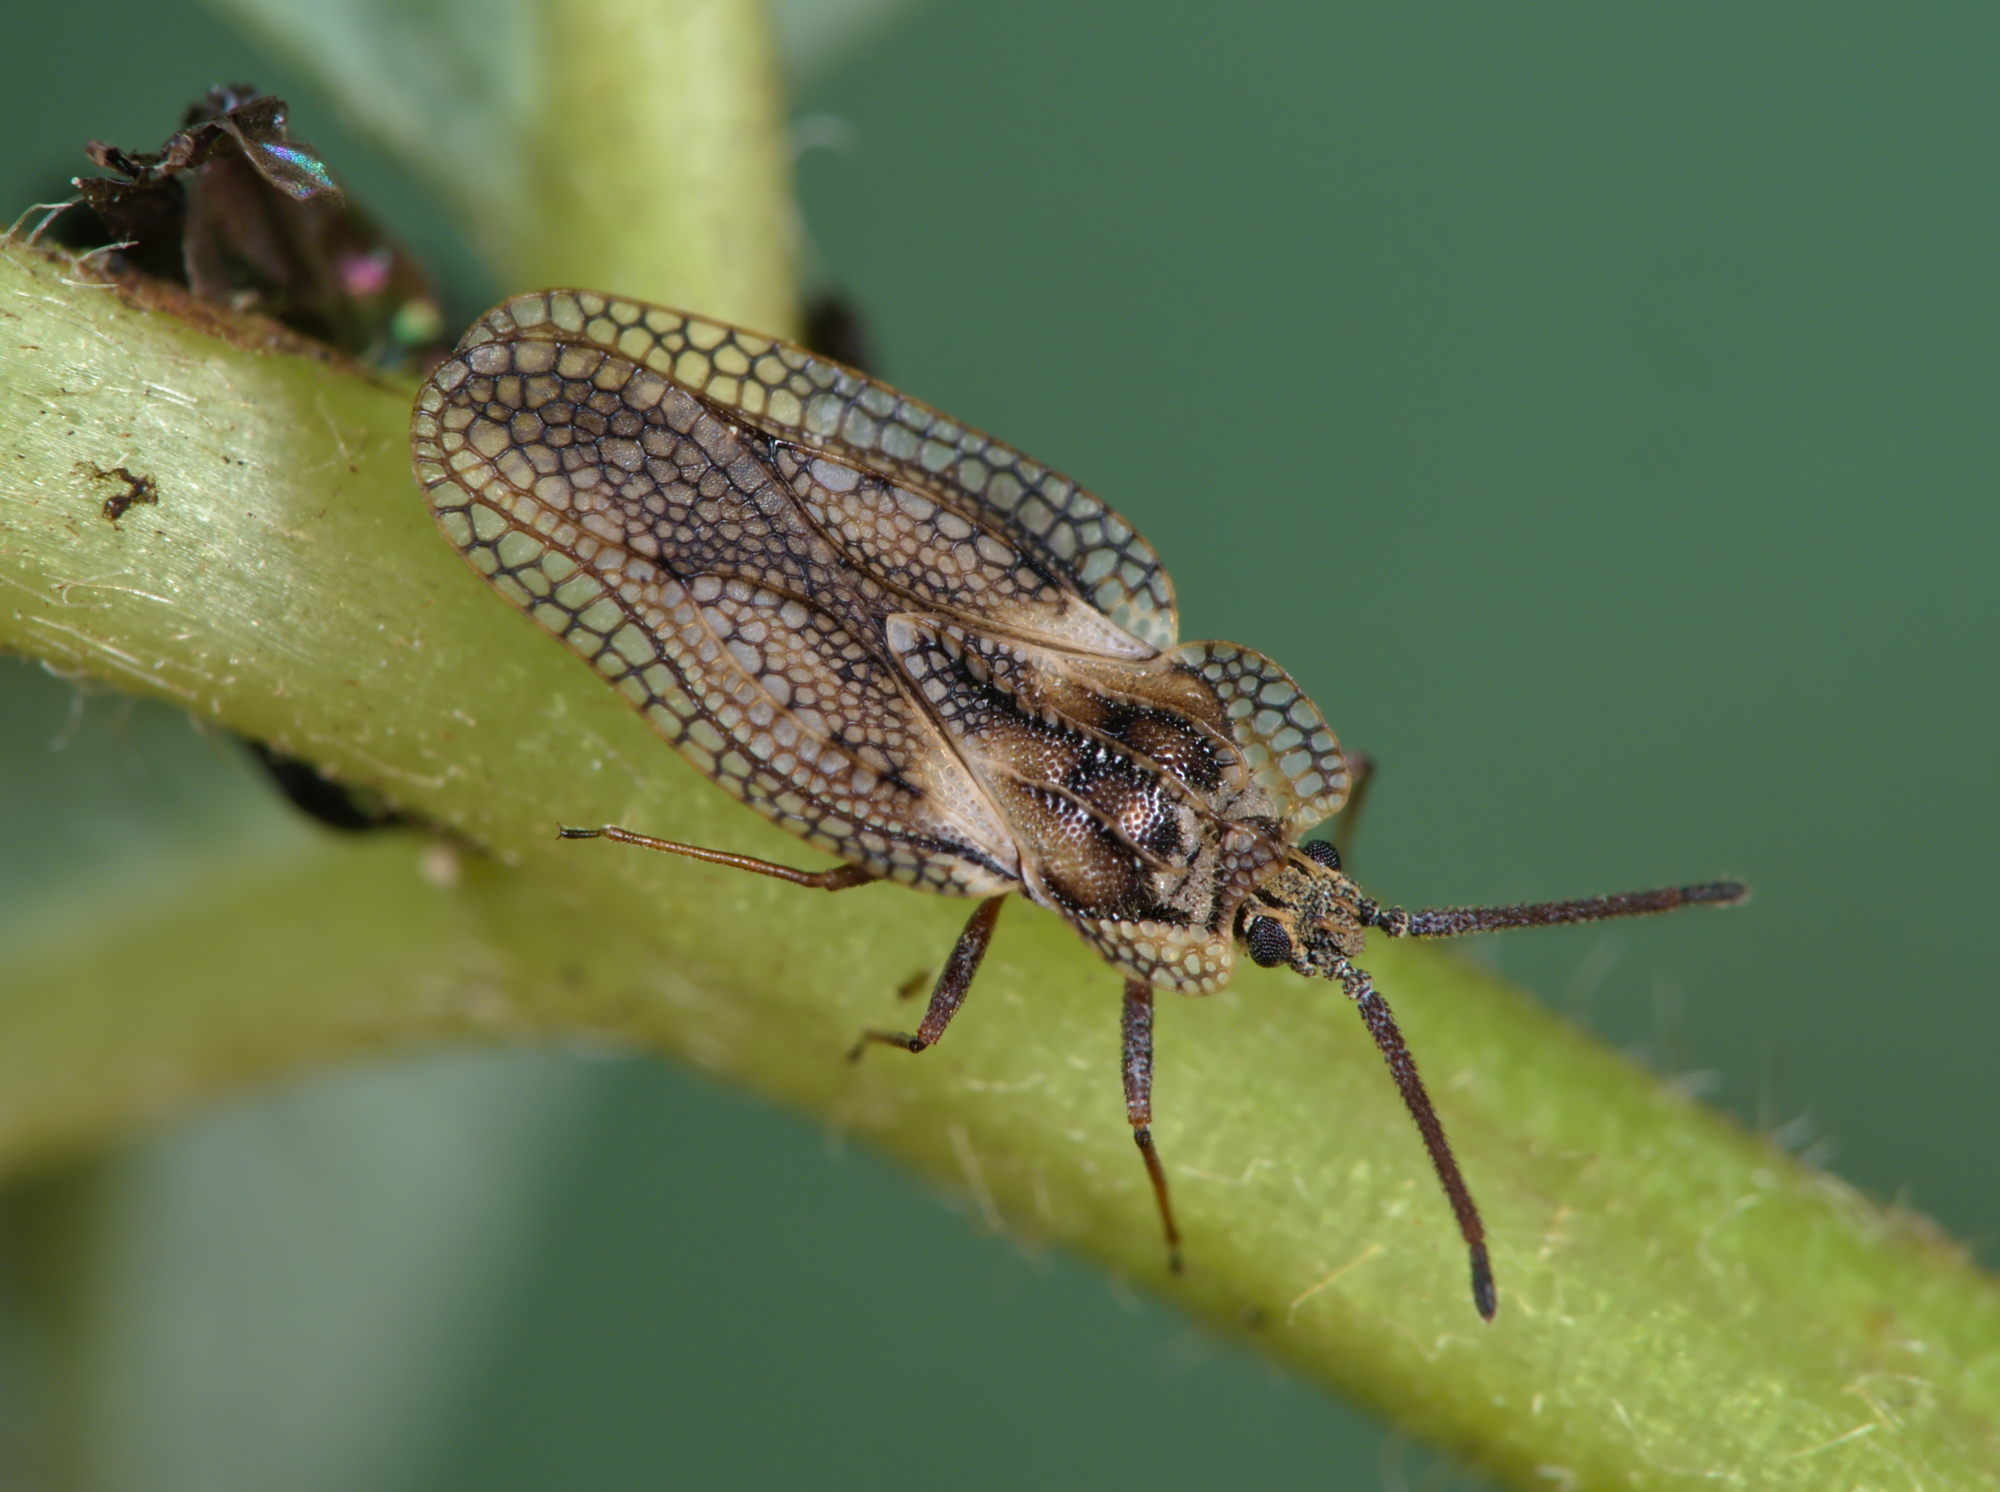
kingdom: Animalia
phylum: Arthropoda
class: Insecta
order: Hemiptera
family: Tingidae
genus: Dictyonota
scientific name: Dictyonota fuliginosa
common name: Lace bug
